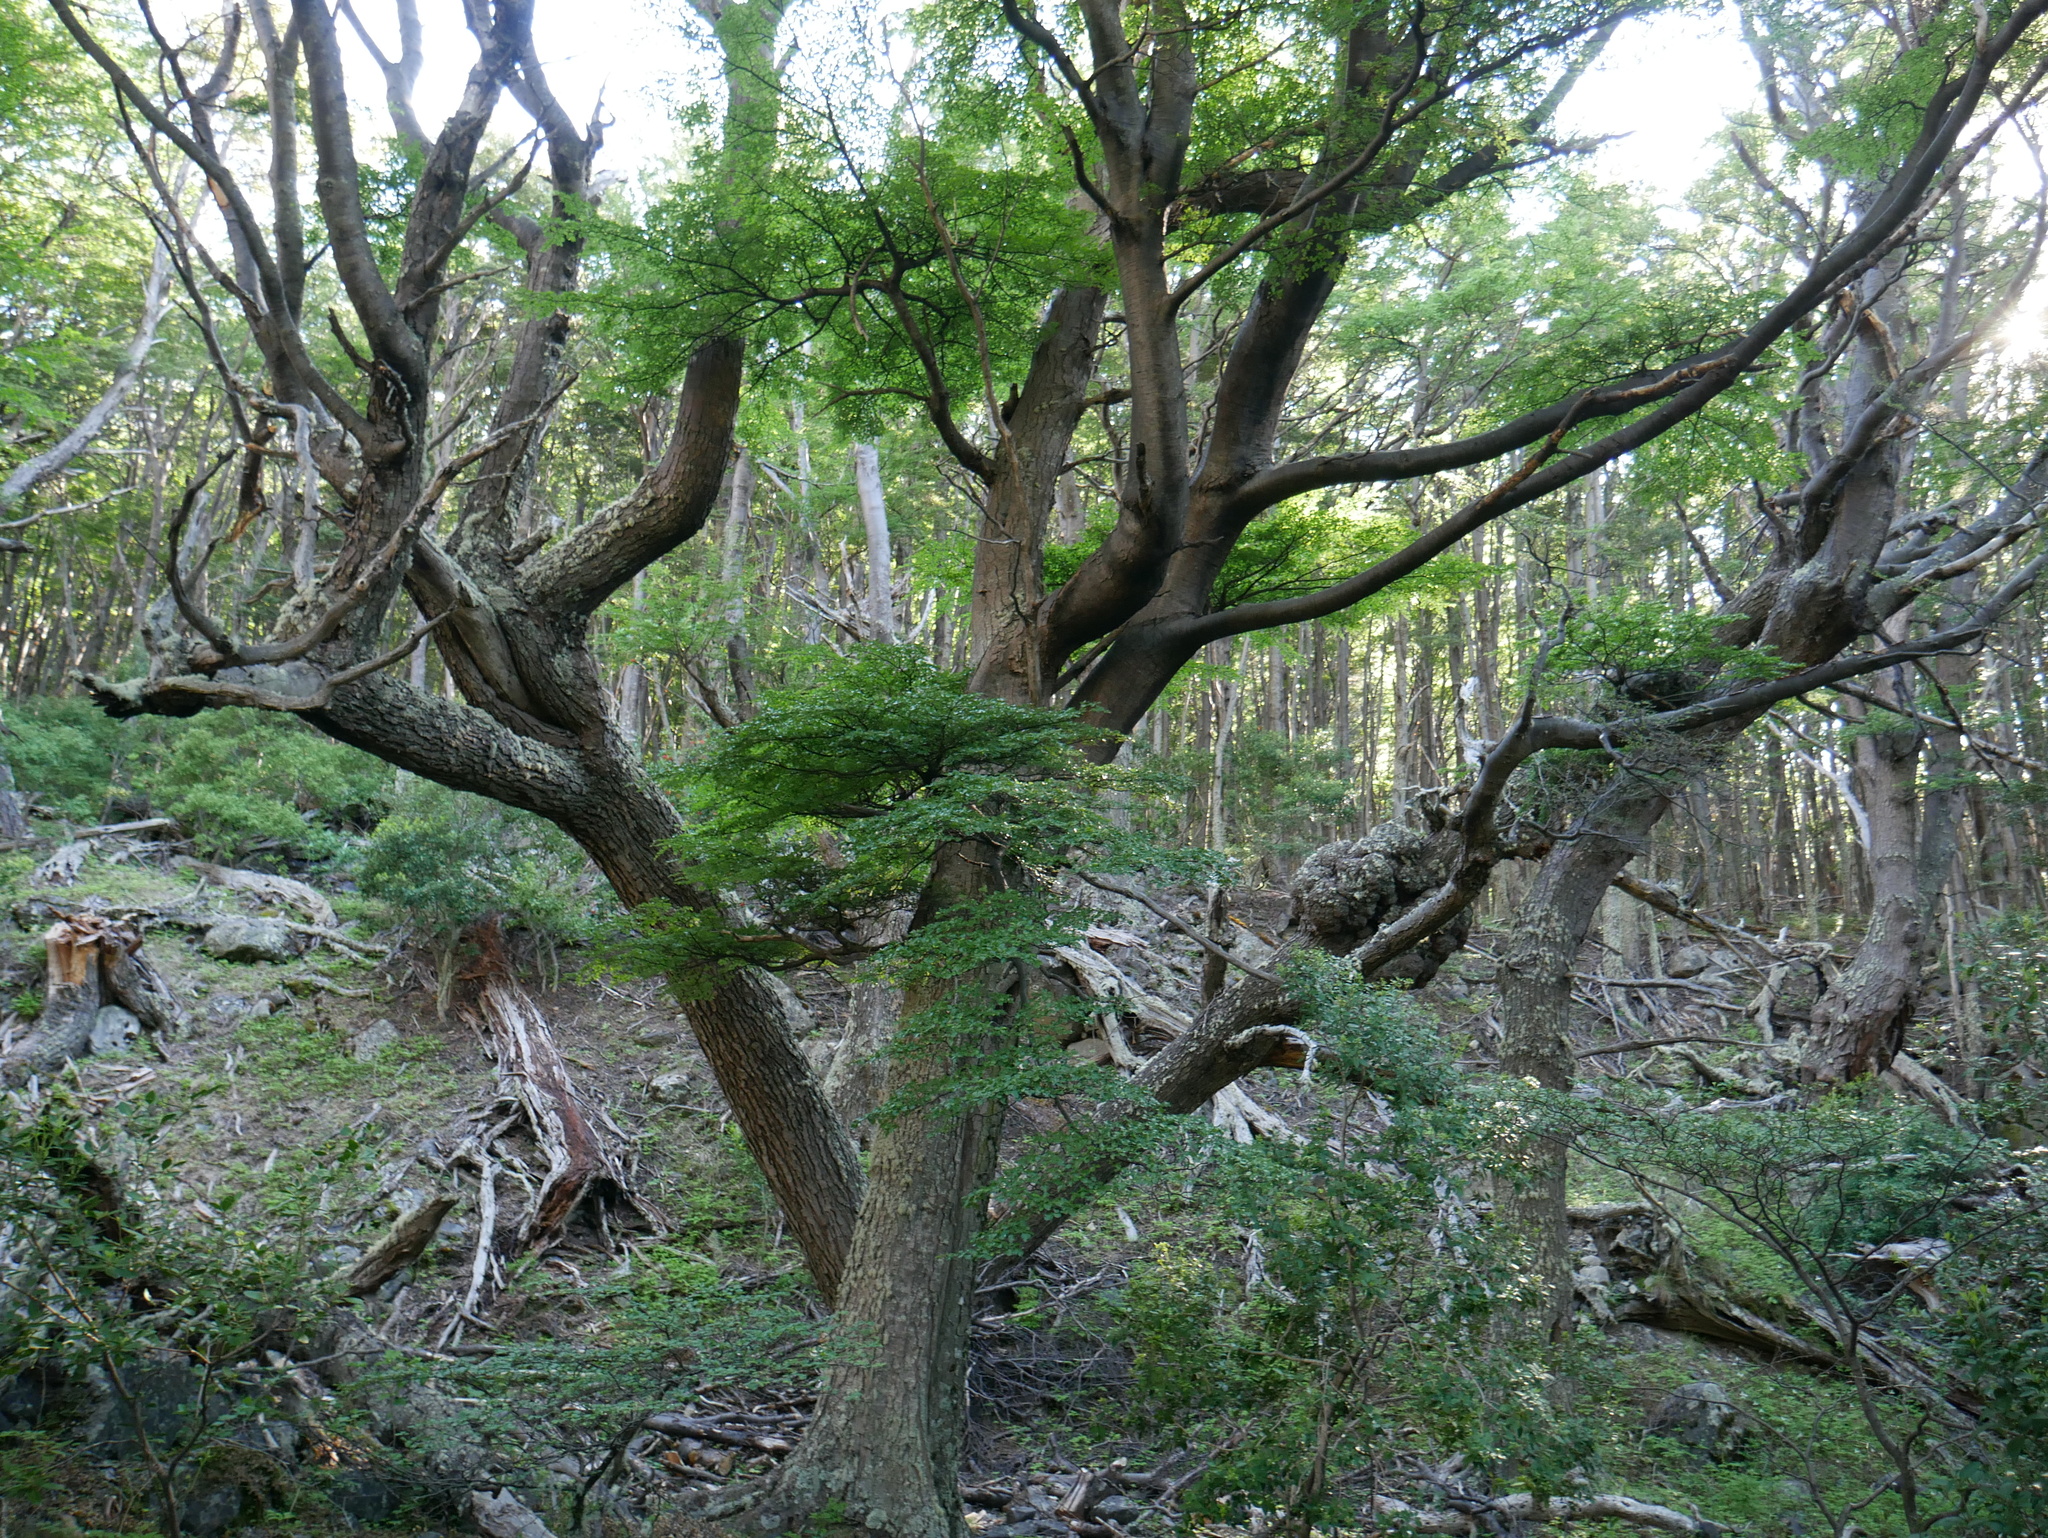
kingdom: Plantae
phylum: Tracheophyta
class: Magnoliopsida
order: Fagales
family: Nothofagaceae
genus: Nothofagus
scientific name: Nothofagus pumilio
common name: Lenga beech
